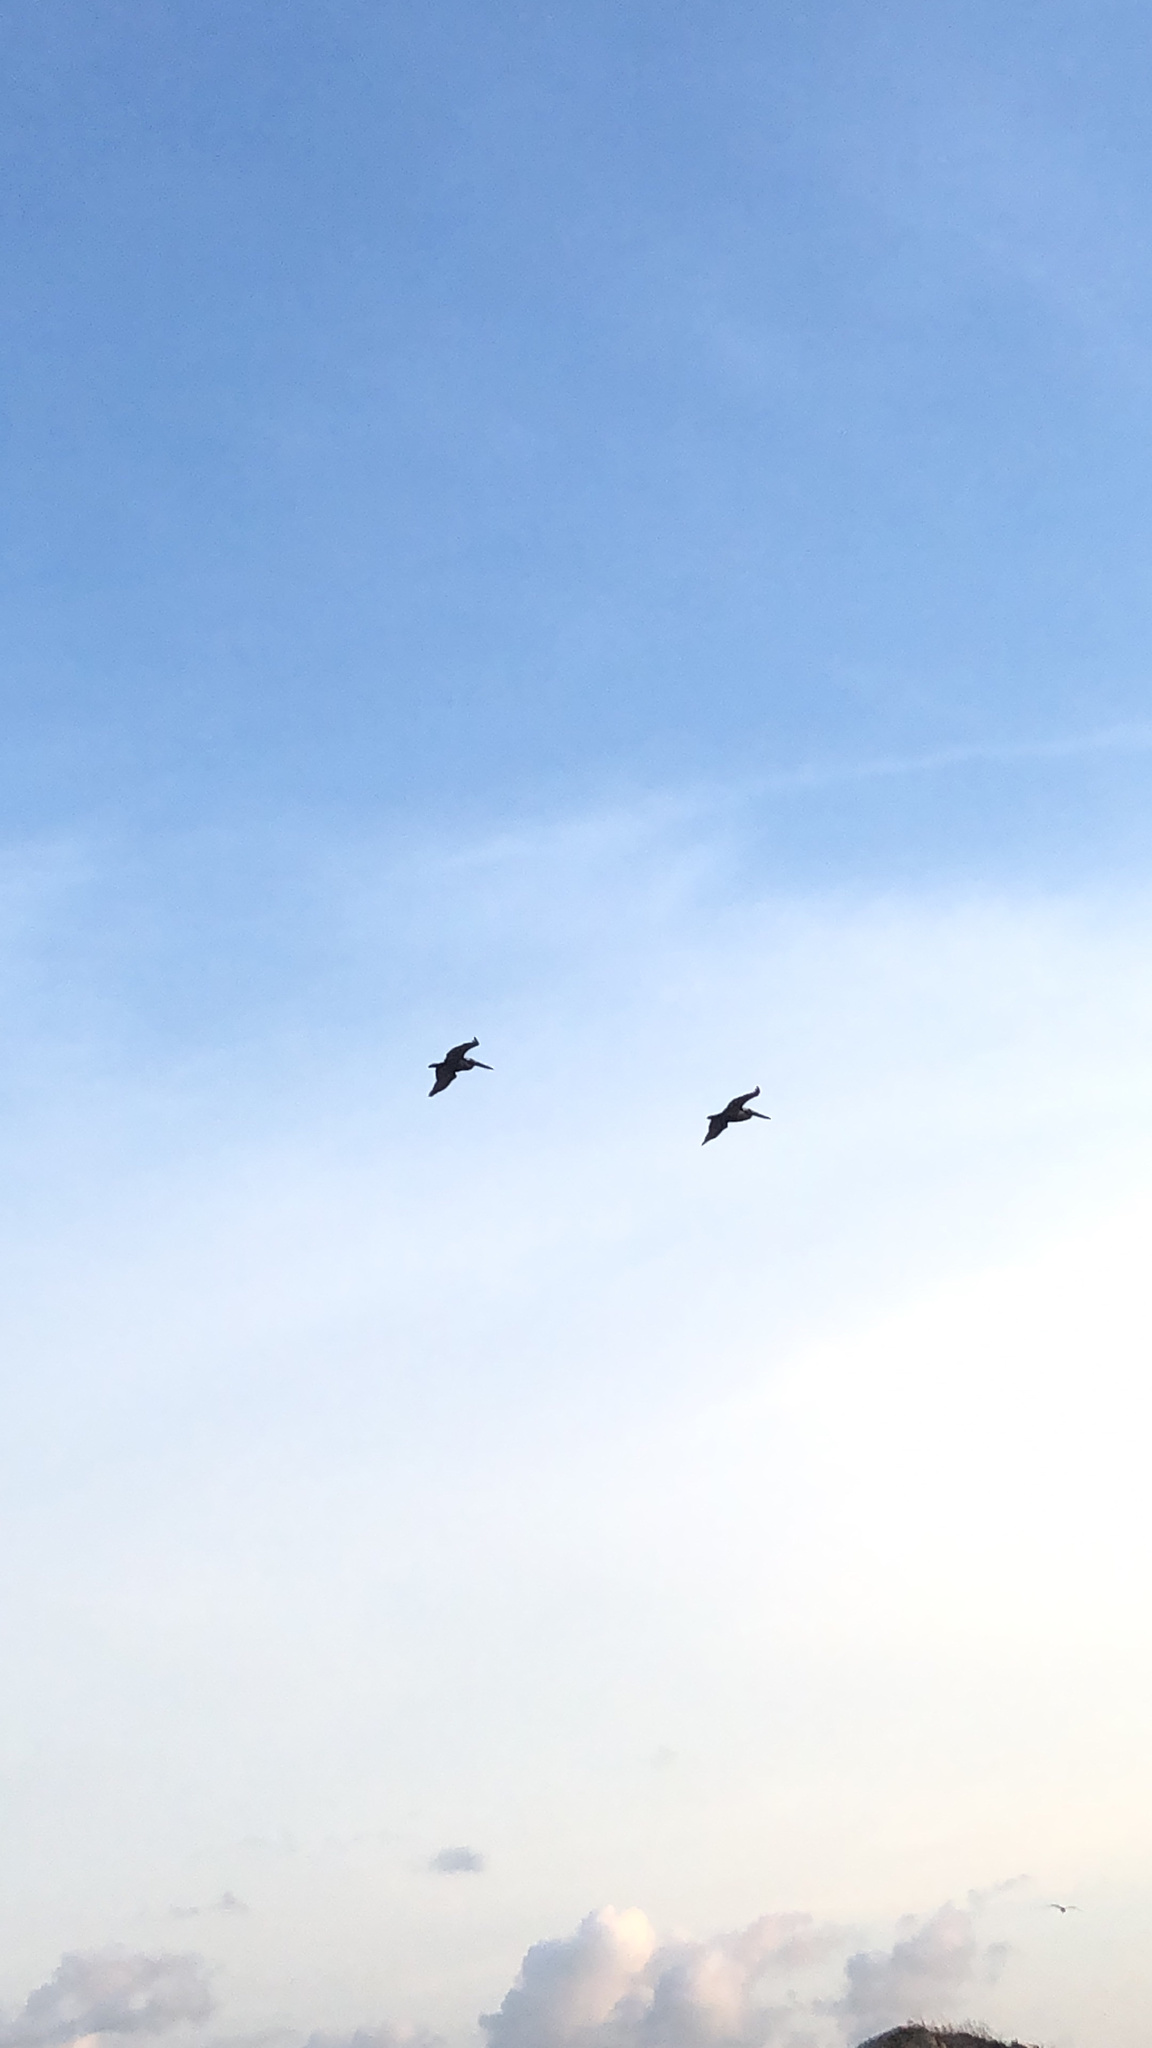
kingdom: Animalia
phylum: Chordata
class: Aves
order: Pelecaniformes
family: Pelecanidae
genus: Pelecanus
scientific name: Pelecanus occidentalis
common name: Brown pelican
